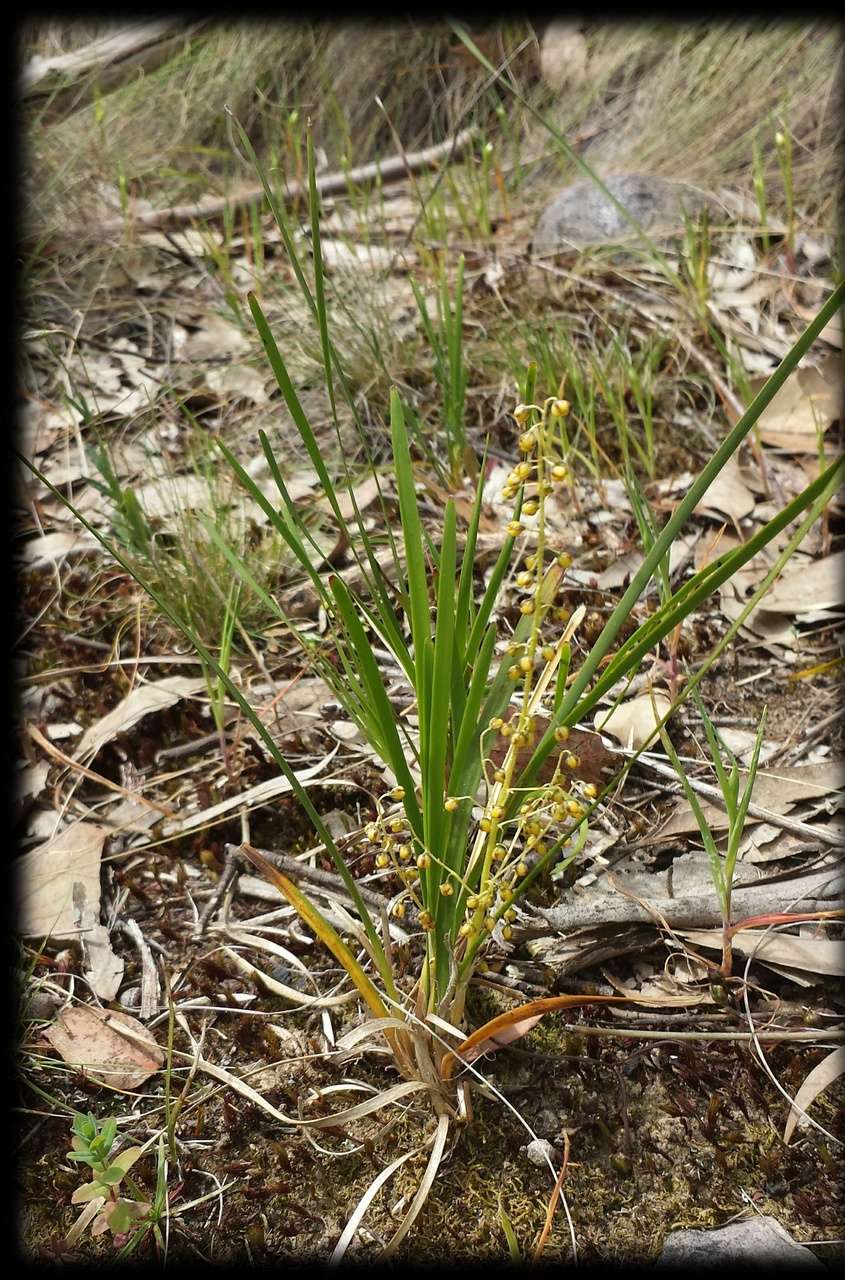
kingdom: Plantae
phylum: Tracheophyta
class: Liliopsida
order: Asparagales
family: Asparagaceae
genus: Lomandra
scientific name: Lomandra filiformis
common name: Wattle mat-rush
